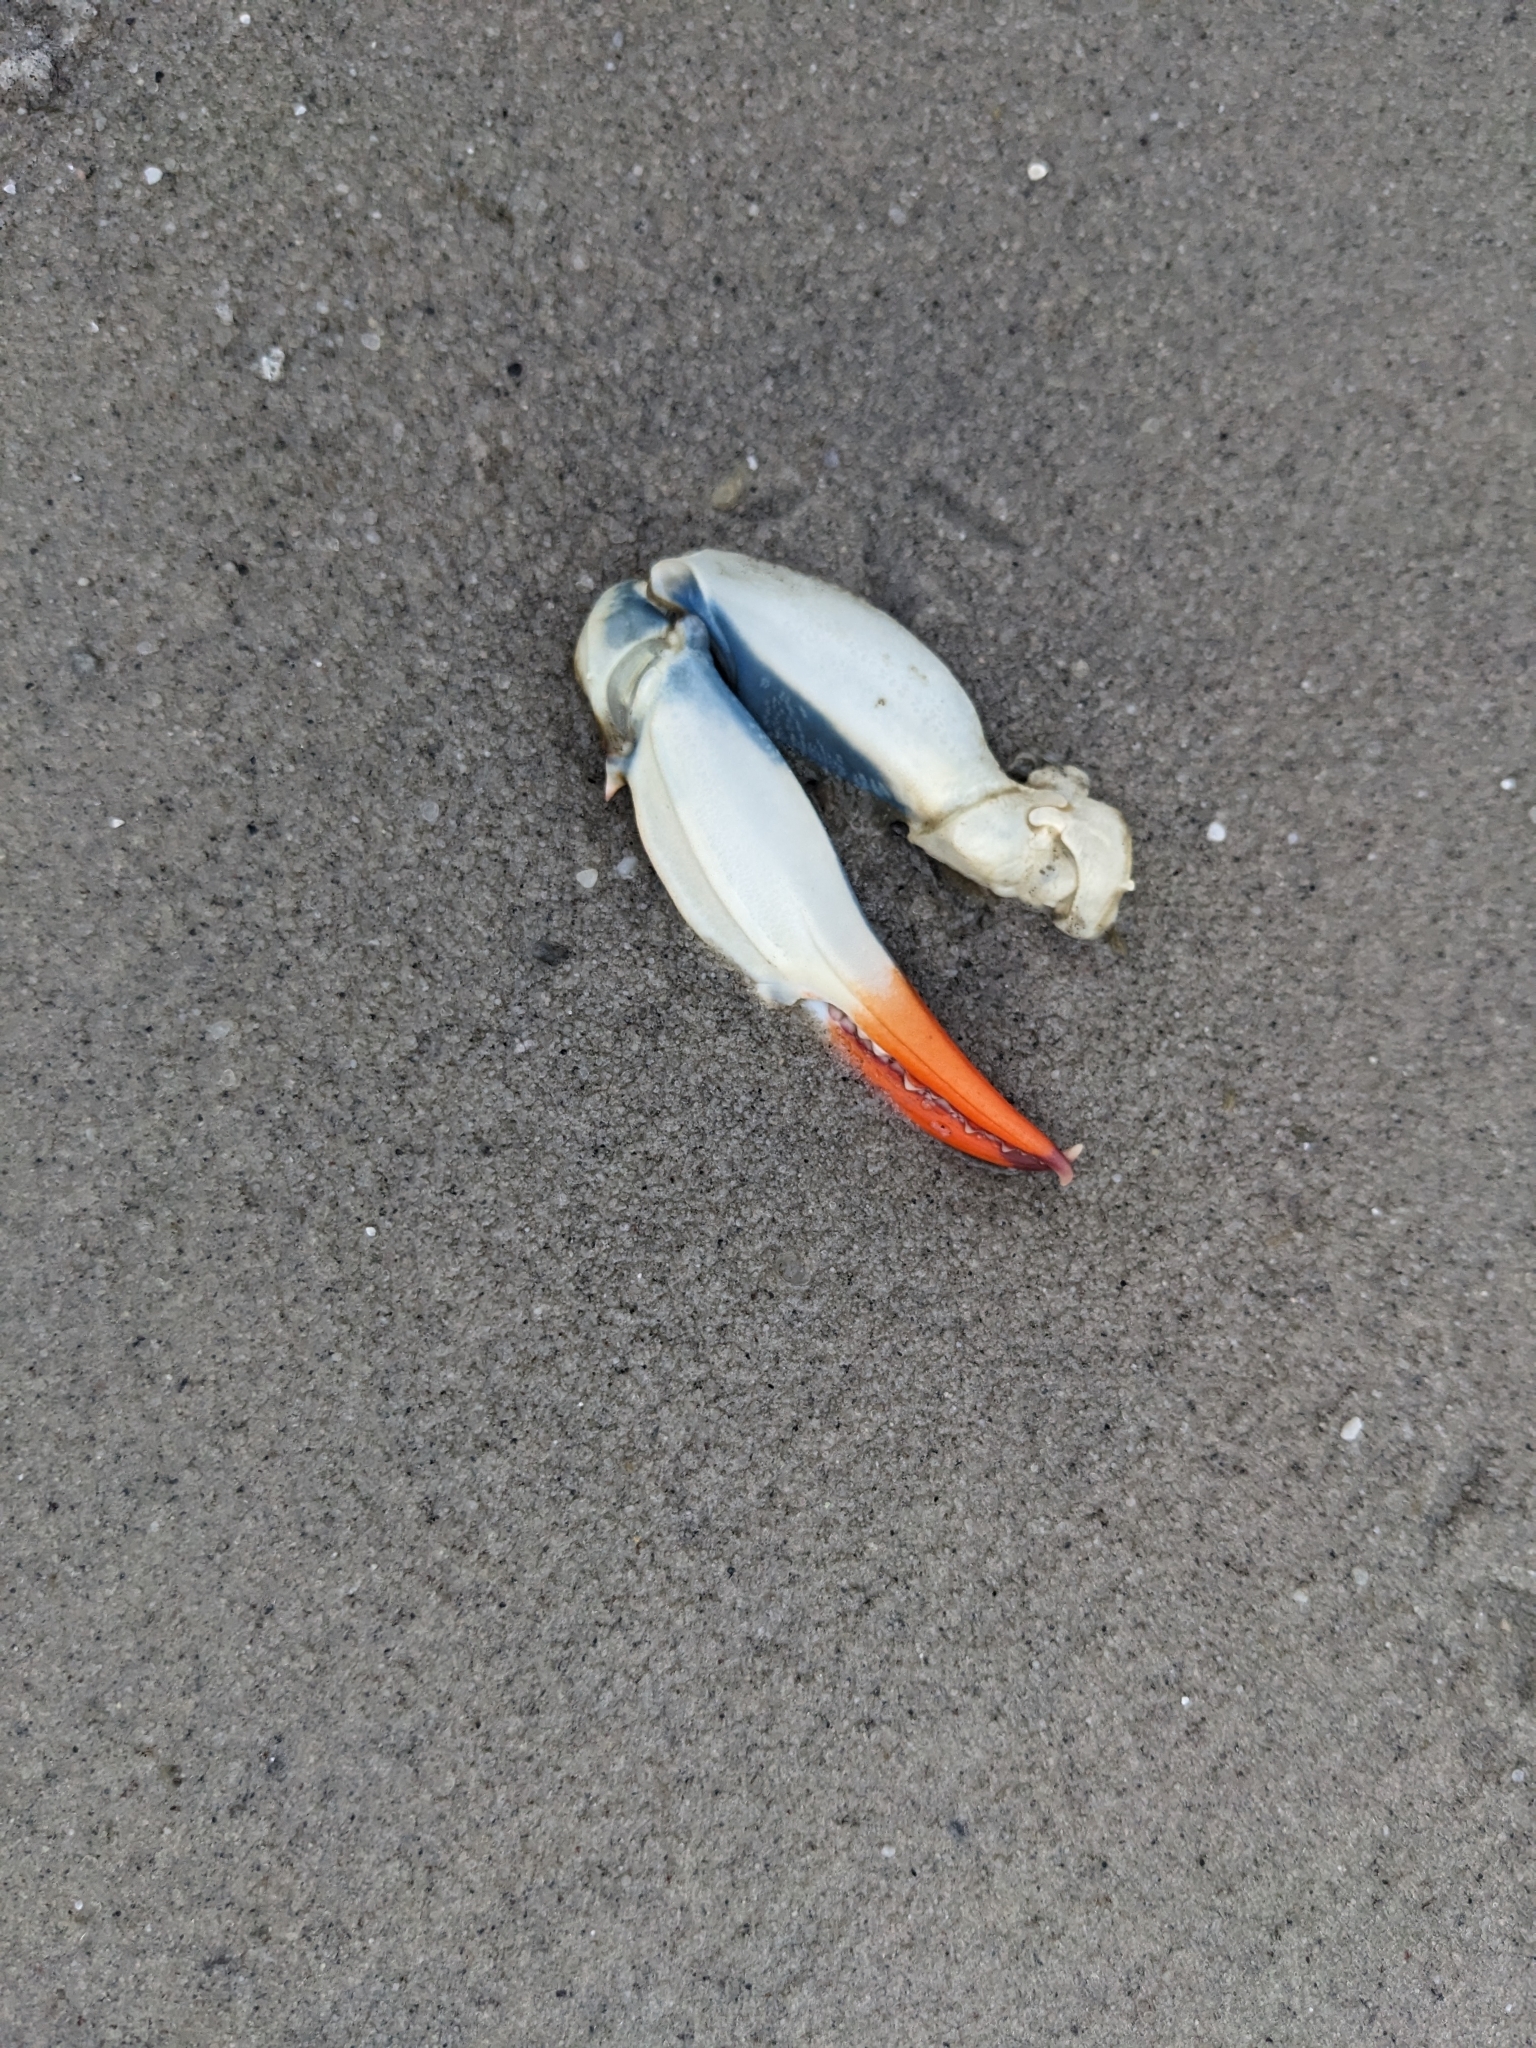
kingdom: Animalia
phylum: Arthropoda
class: Malacostraca
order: Decapoda
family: Portunidae
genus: Callinectes
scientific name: Callinectes sapidus
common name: Blue crab
